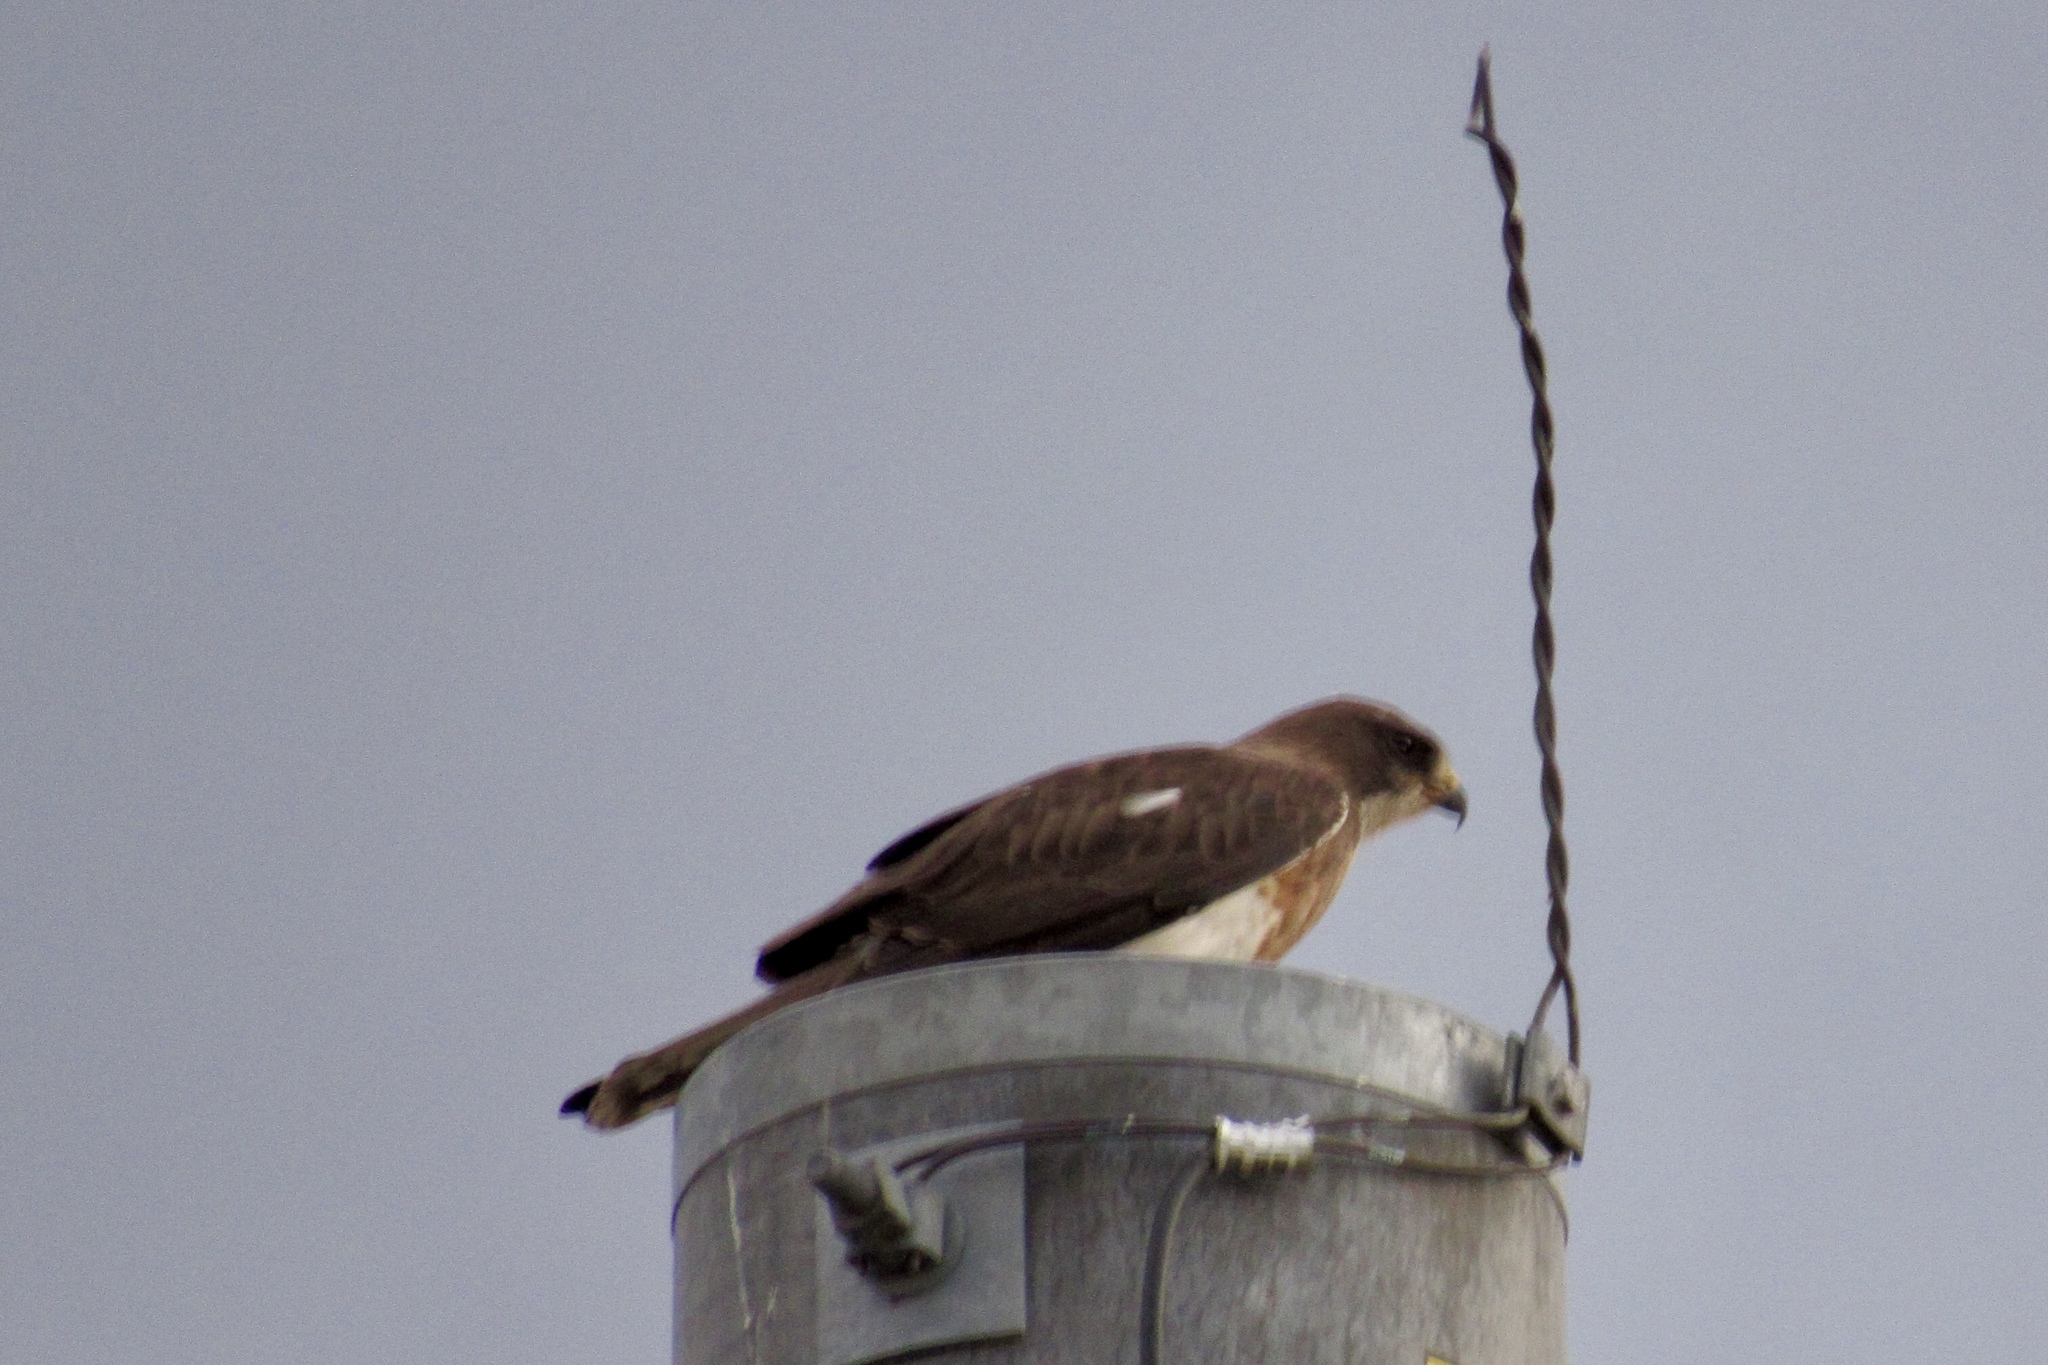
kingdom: Animalia
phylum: Chordata
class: Aves
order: Accipitriformes
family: Accipitridae
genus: Buteo
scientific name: Buteo swainsoni
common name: Swainson's hawk
